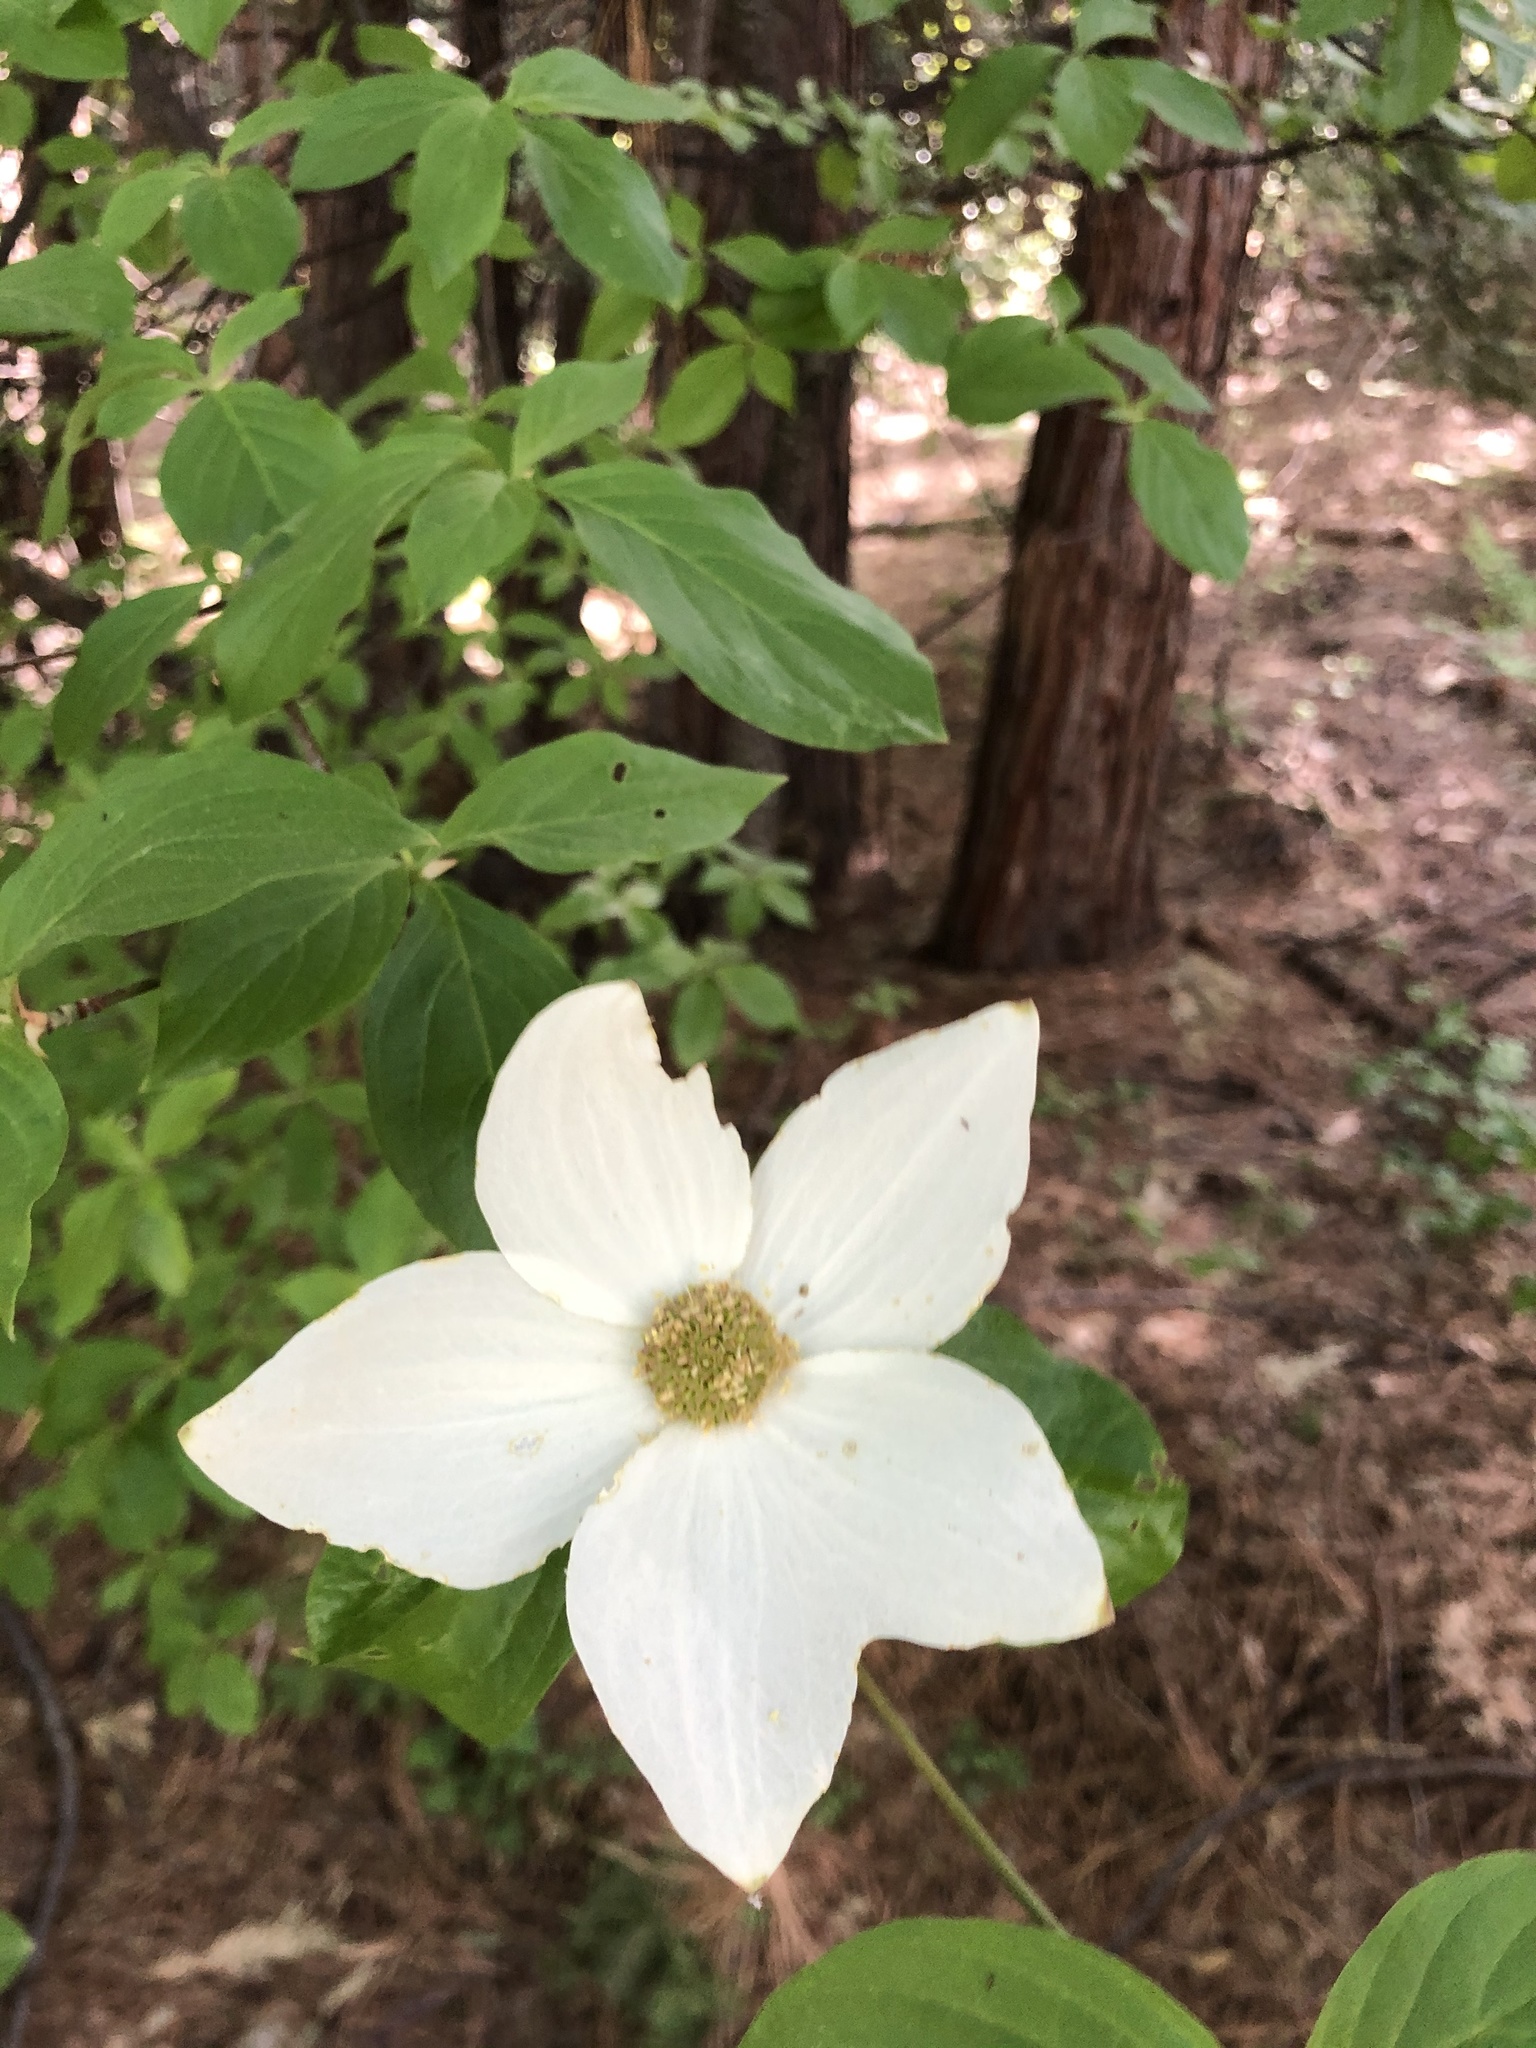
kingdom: Plantae
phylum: Tracheophyta
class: Magnoliopsida
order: Cornales
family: Cornaceae
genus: Cornus
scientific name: Cornus nuttallii
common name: Pacific dogwood
